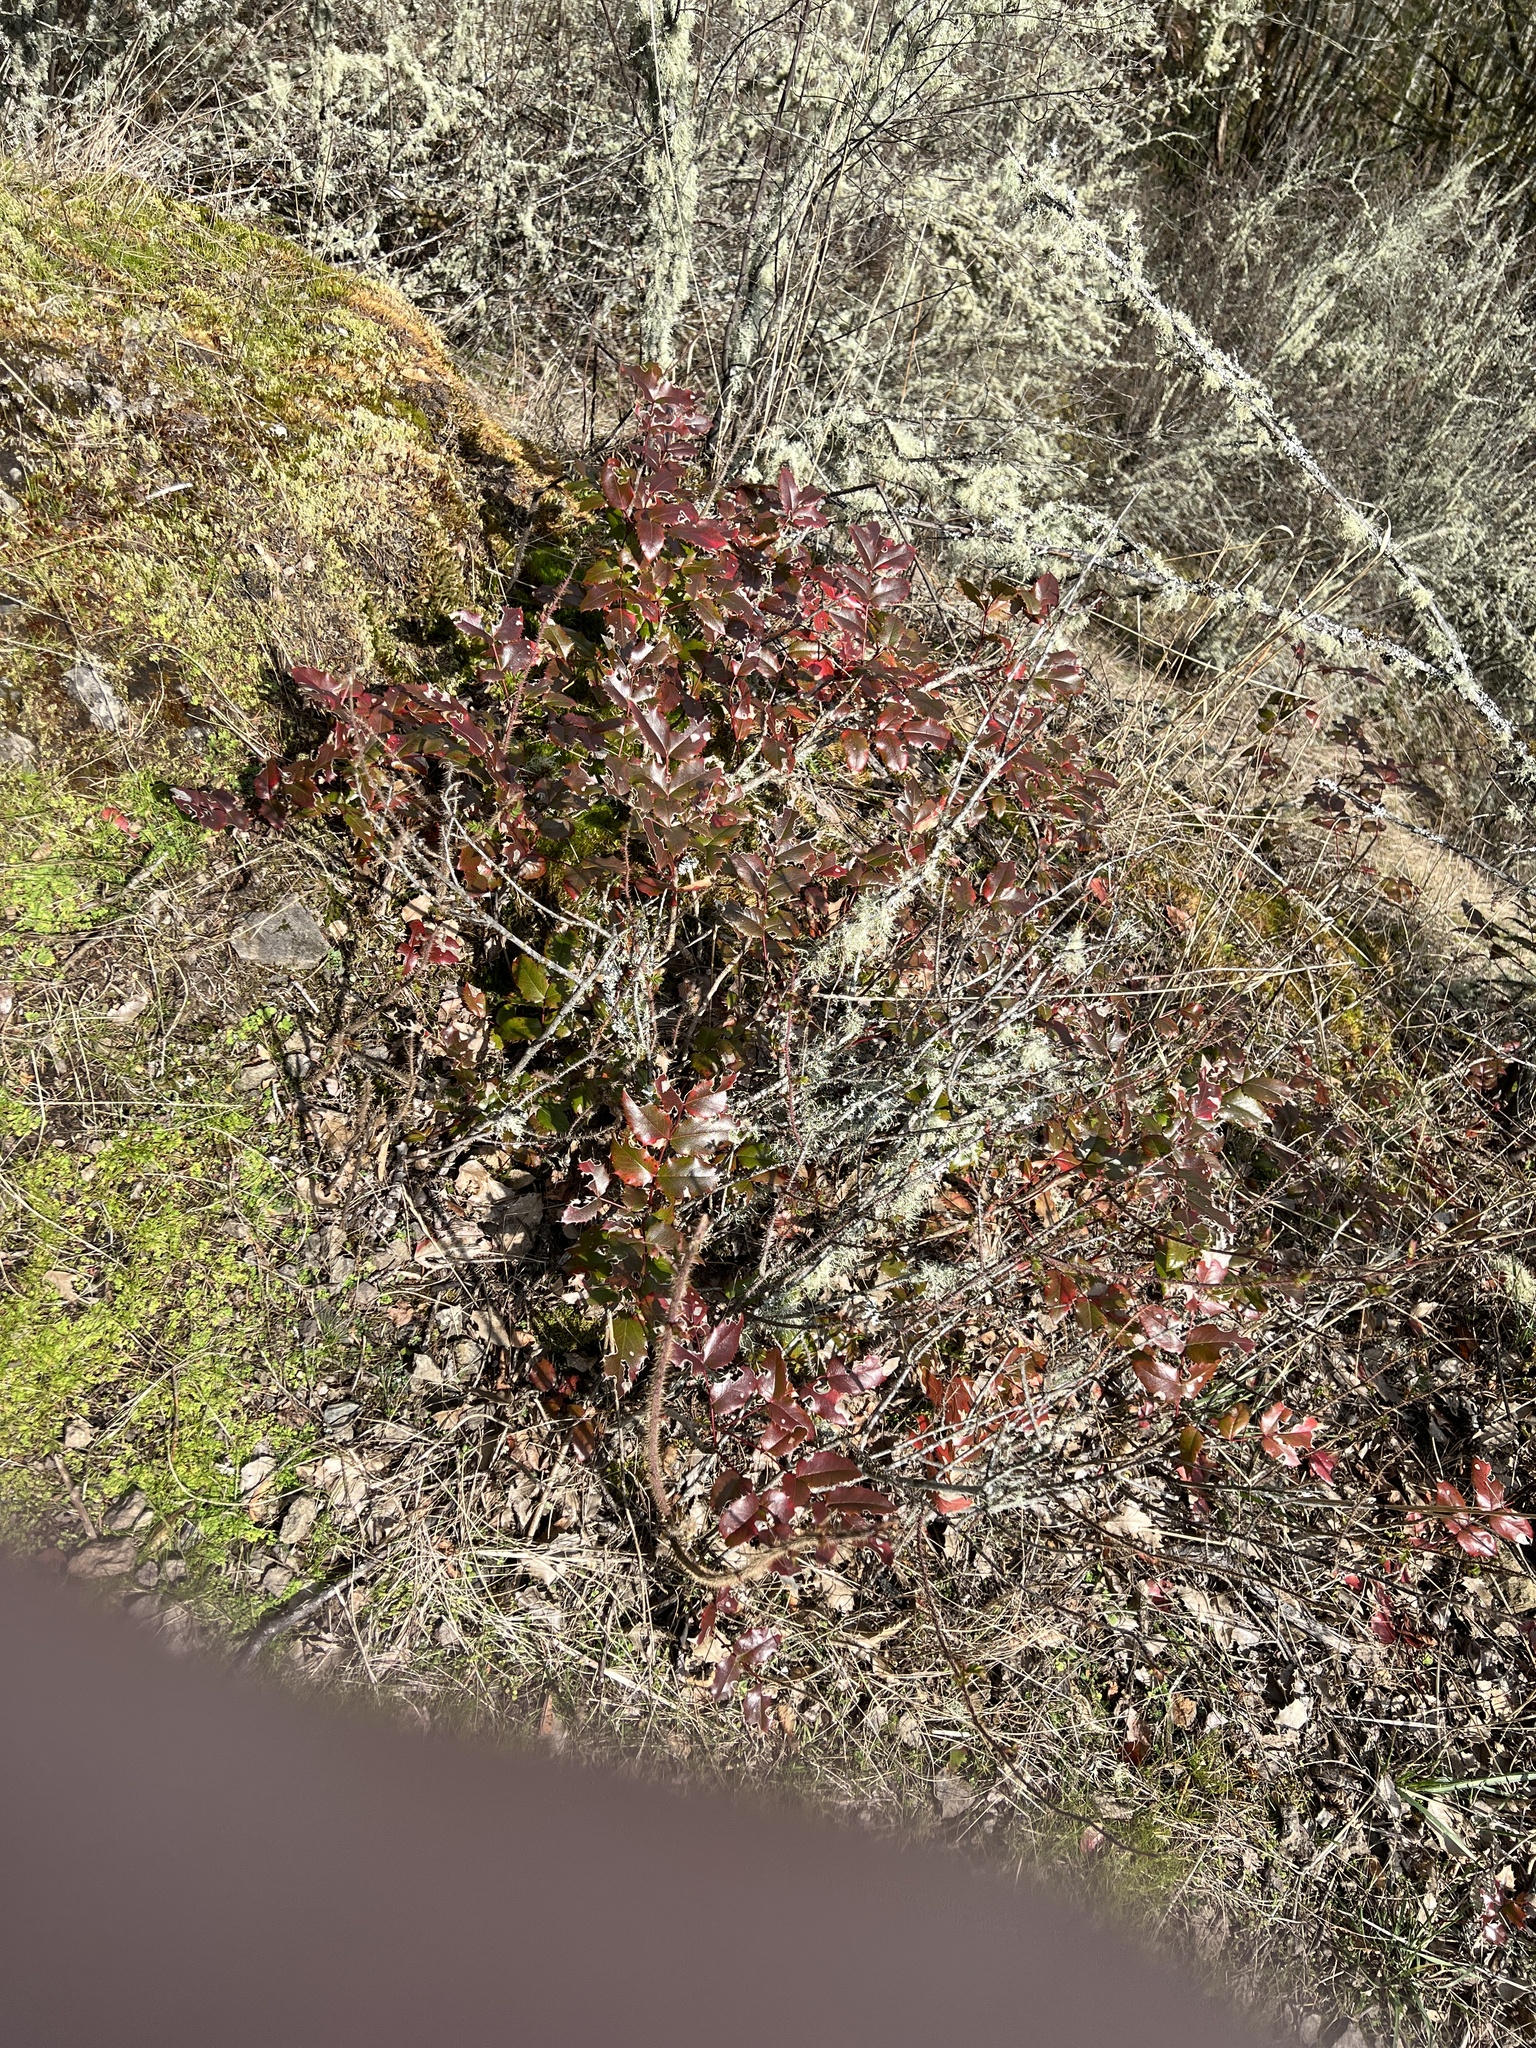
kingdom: Plantae
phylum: Tracheophyta
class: Magnoliopsida
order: Ranunculales
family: Berberidaceae
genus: Mahonia
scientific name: Mahonia aquifolium
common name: Oregon-grape
